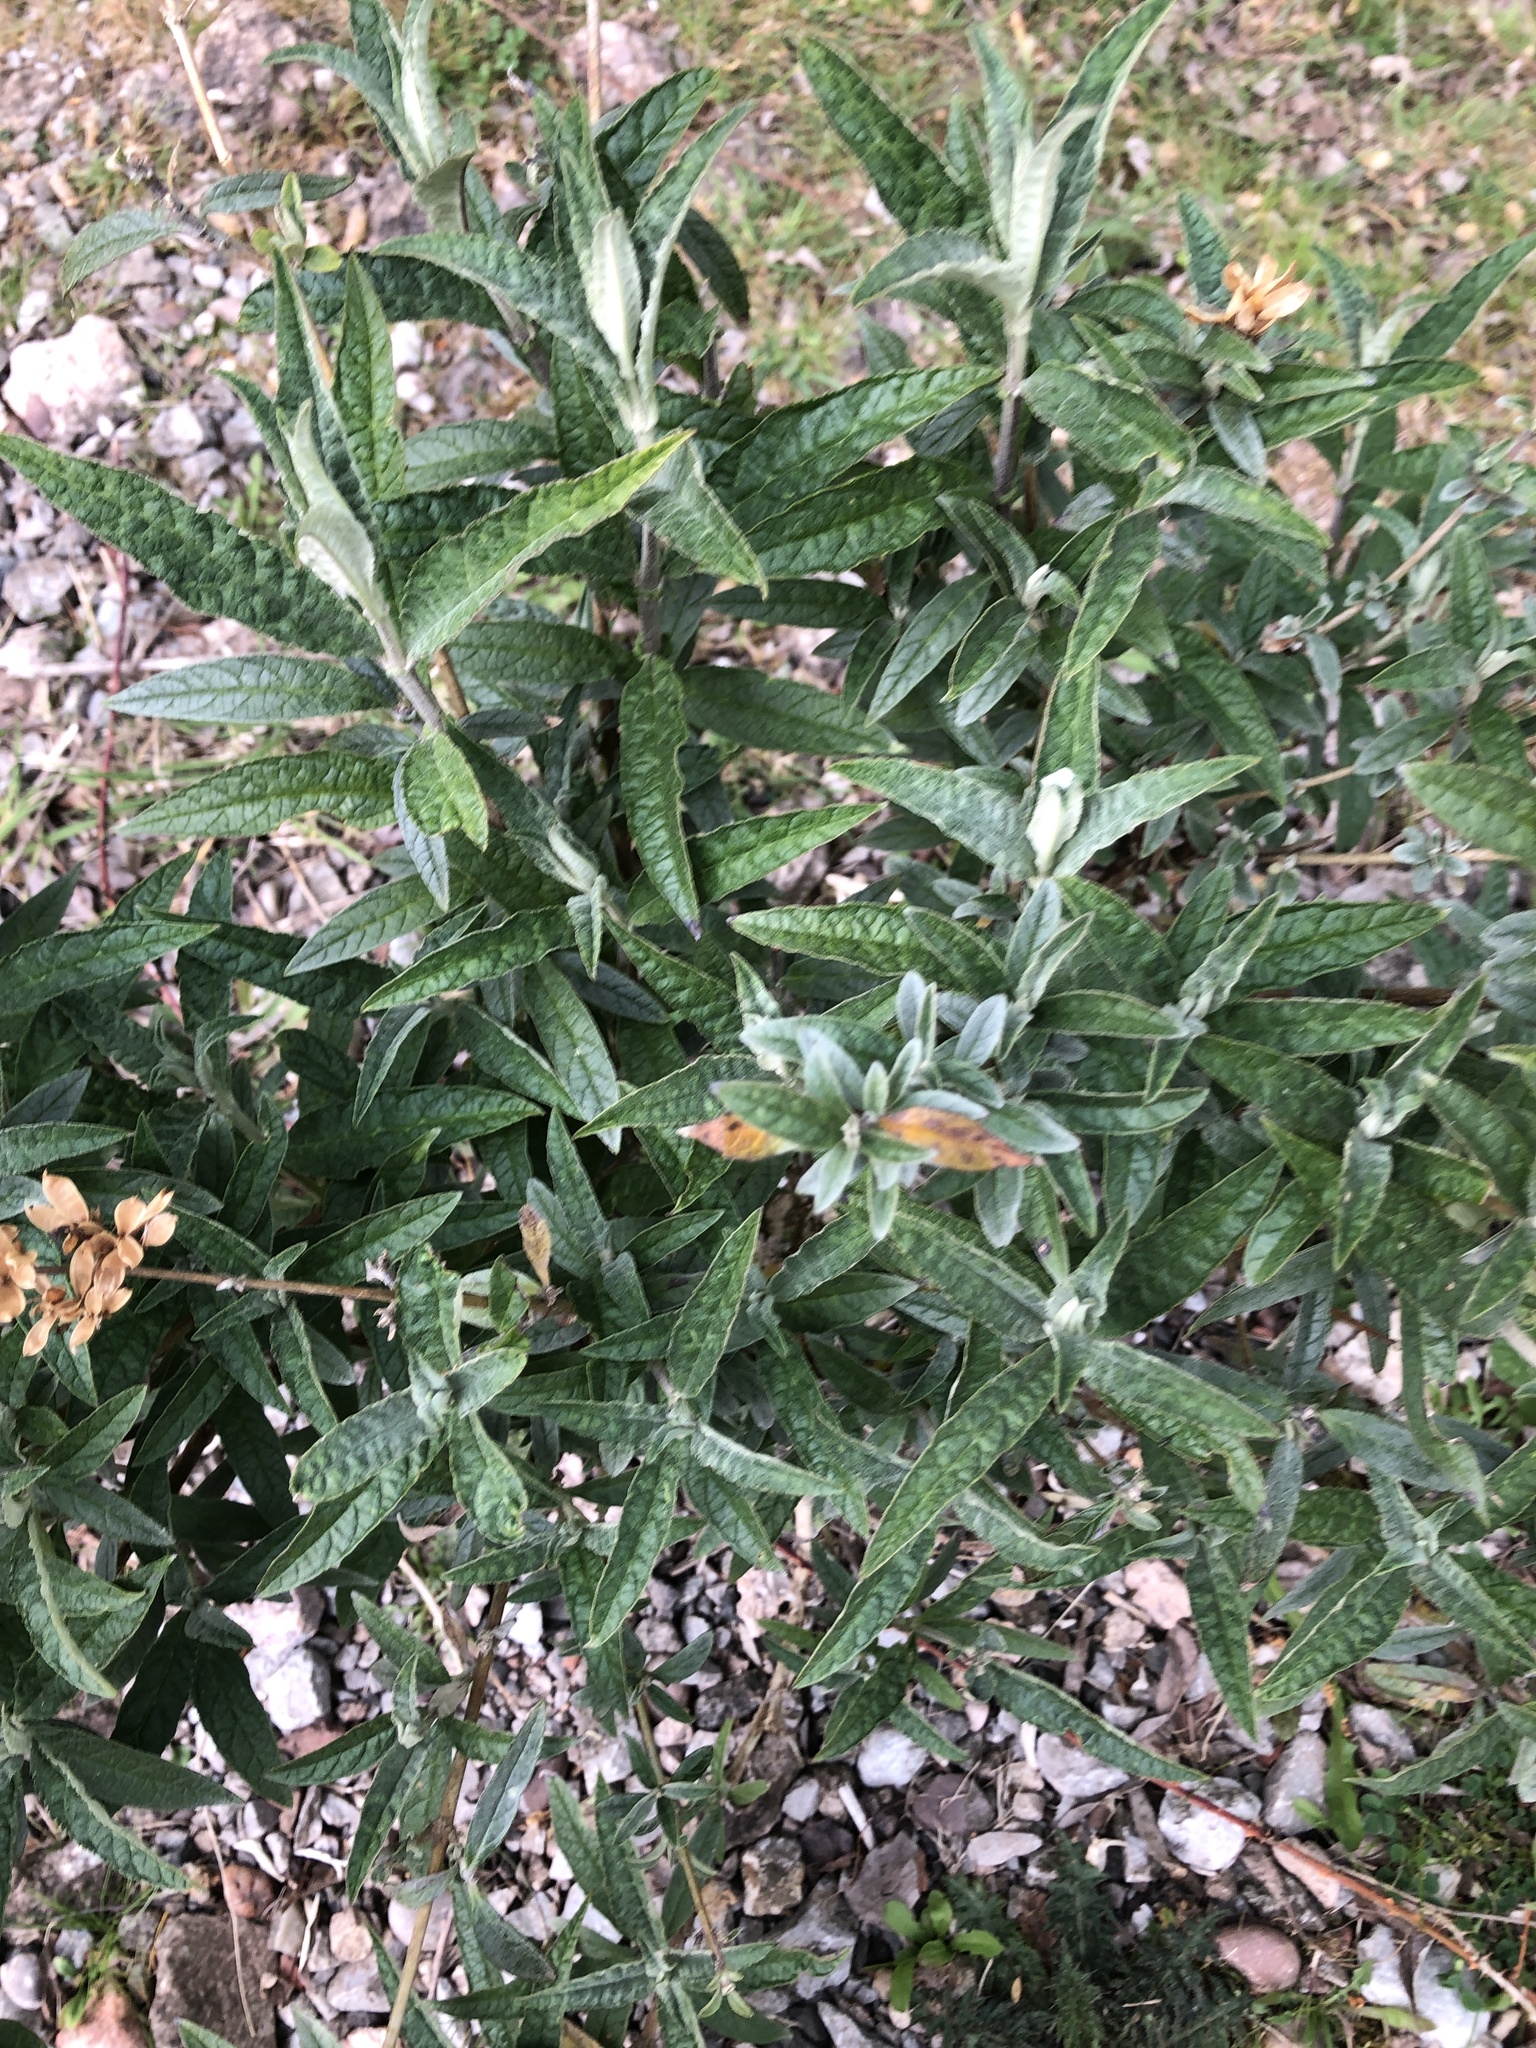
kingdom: Plantae
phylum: Tracheophyta
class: Magnoliopsida
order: Lamiales
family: Scrophulariaceae
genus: Buddleja
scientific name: Buddleja davidii
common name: Butterfly-bush
